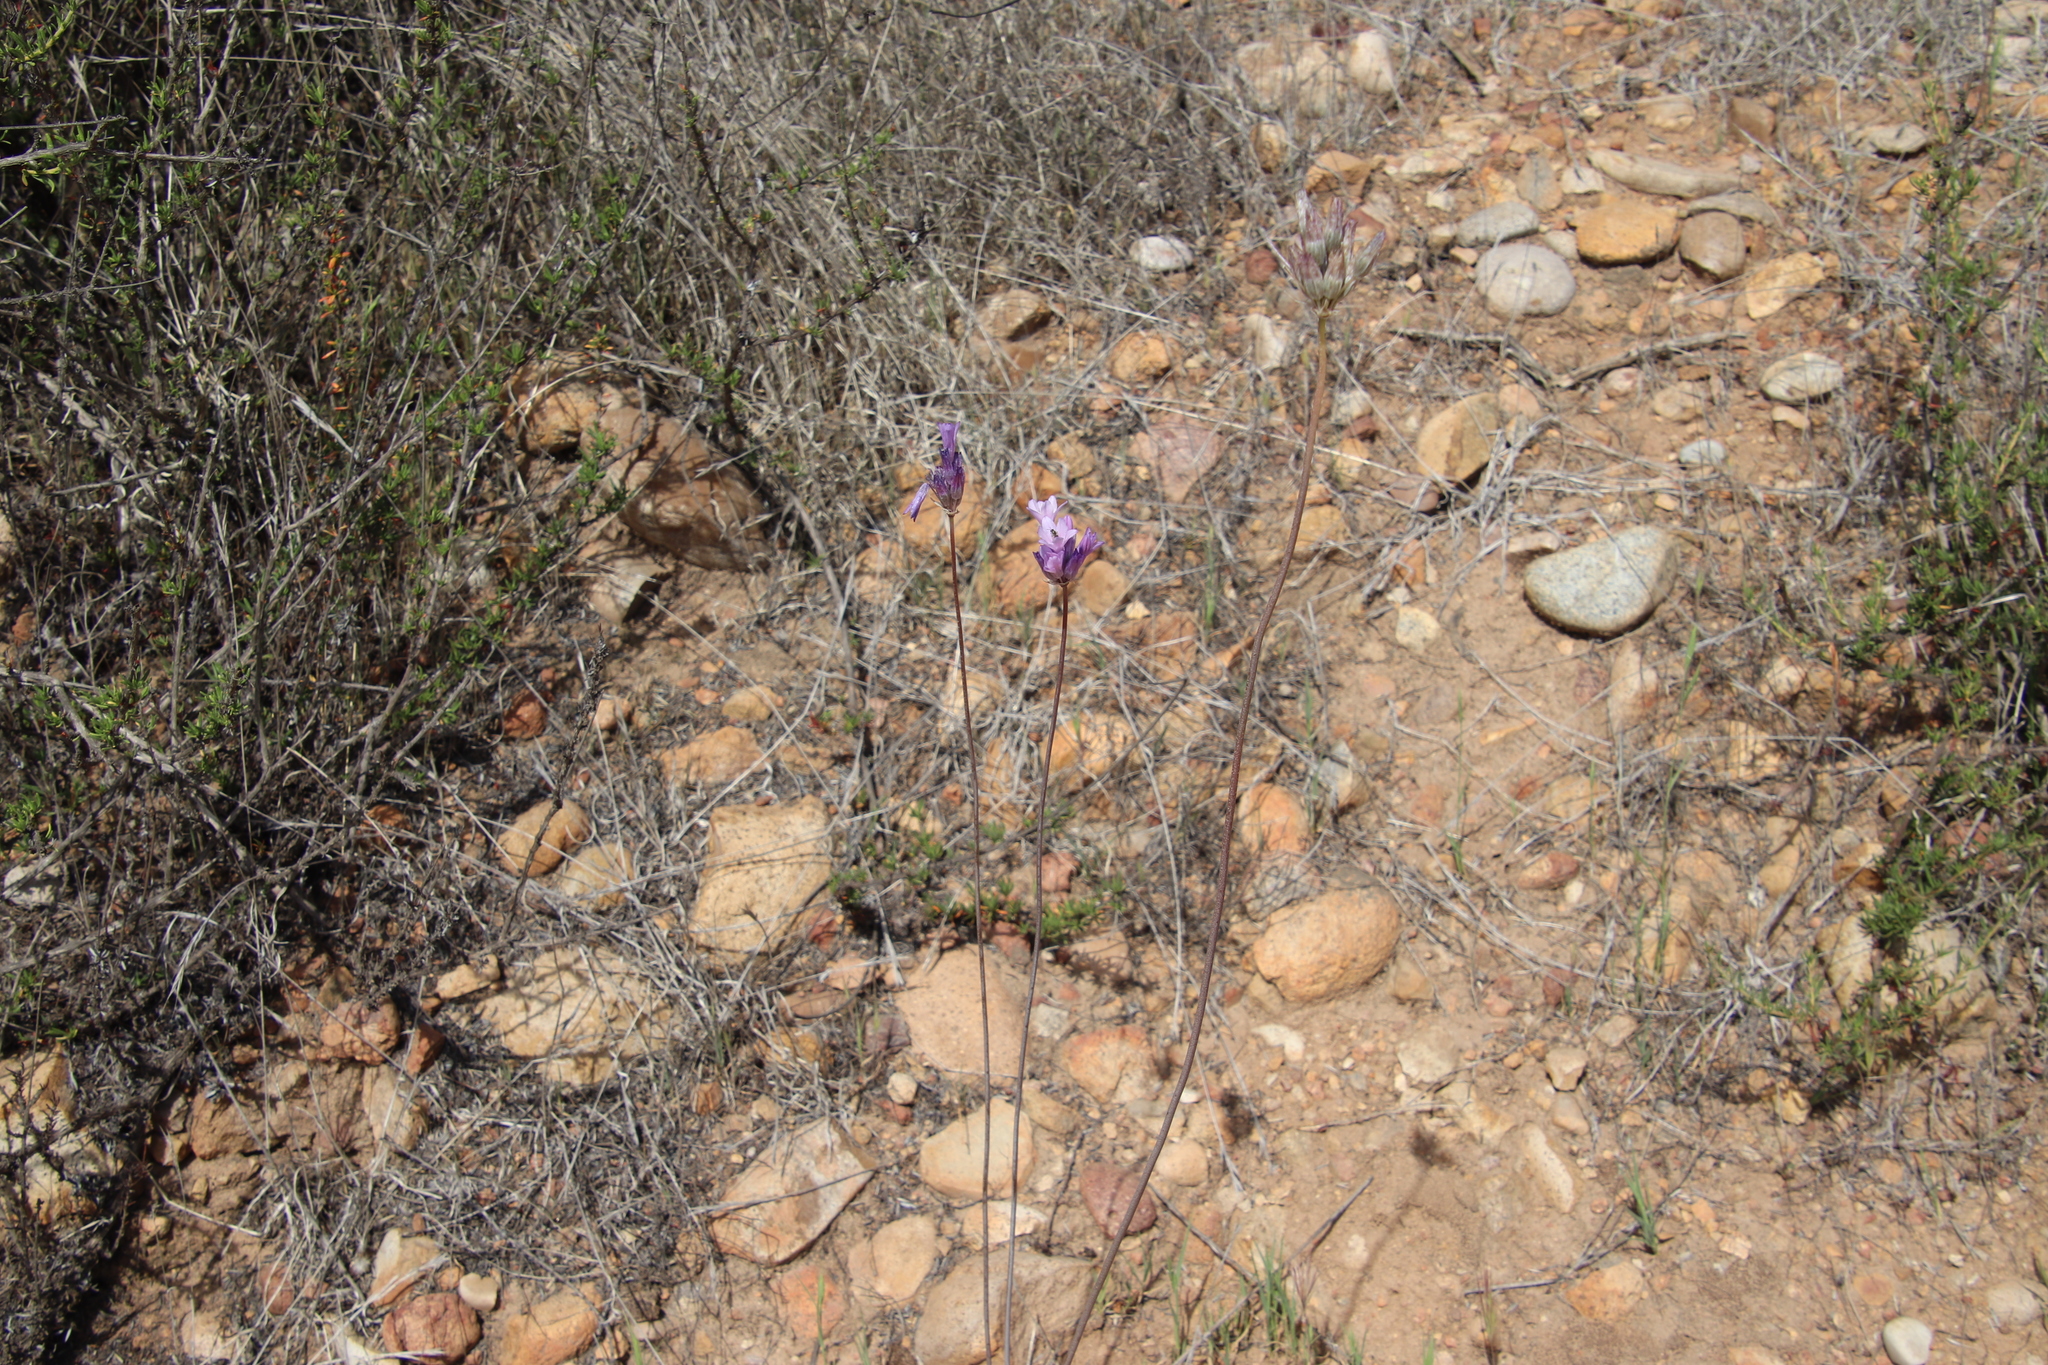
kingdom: Plantae
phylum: Tracheophyta
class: Liliopsida
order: Asparagales
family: Asparagaceae
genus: Dipterostemon
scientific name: Dipterostemon capitatus
